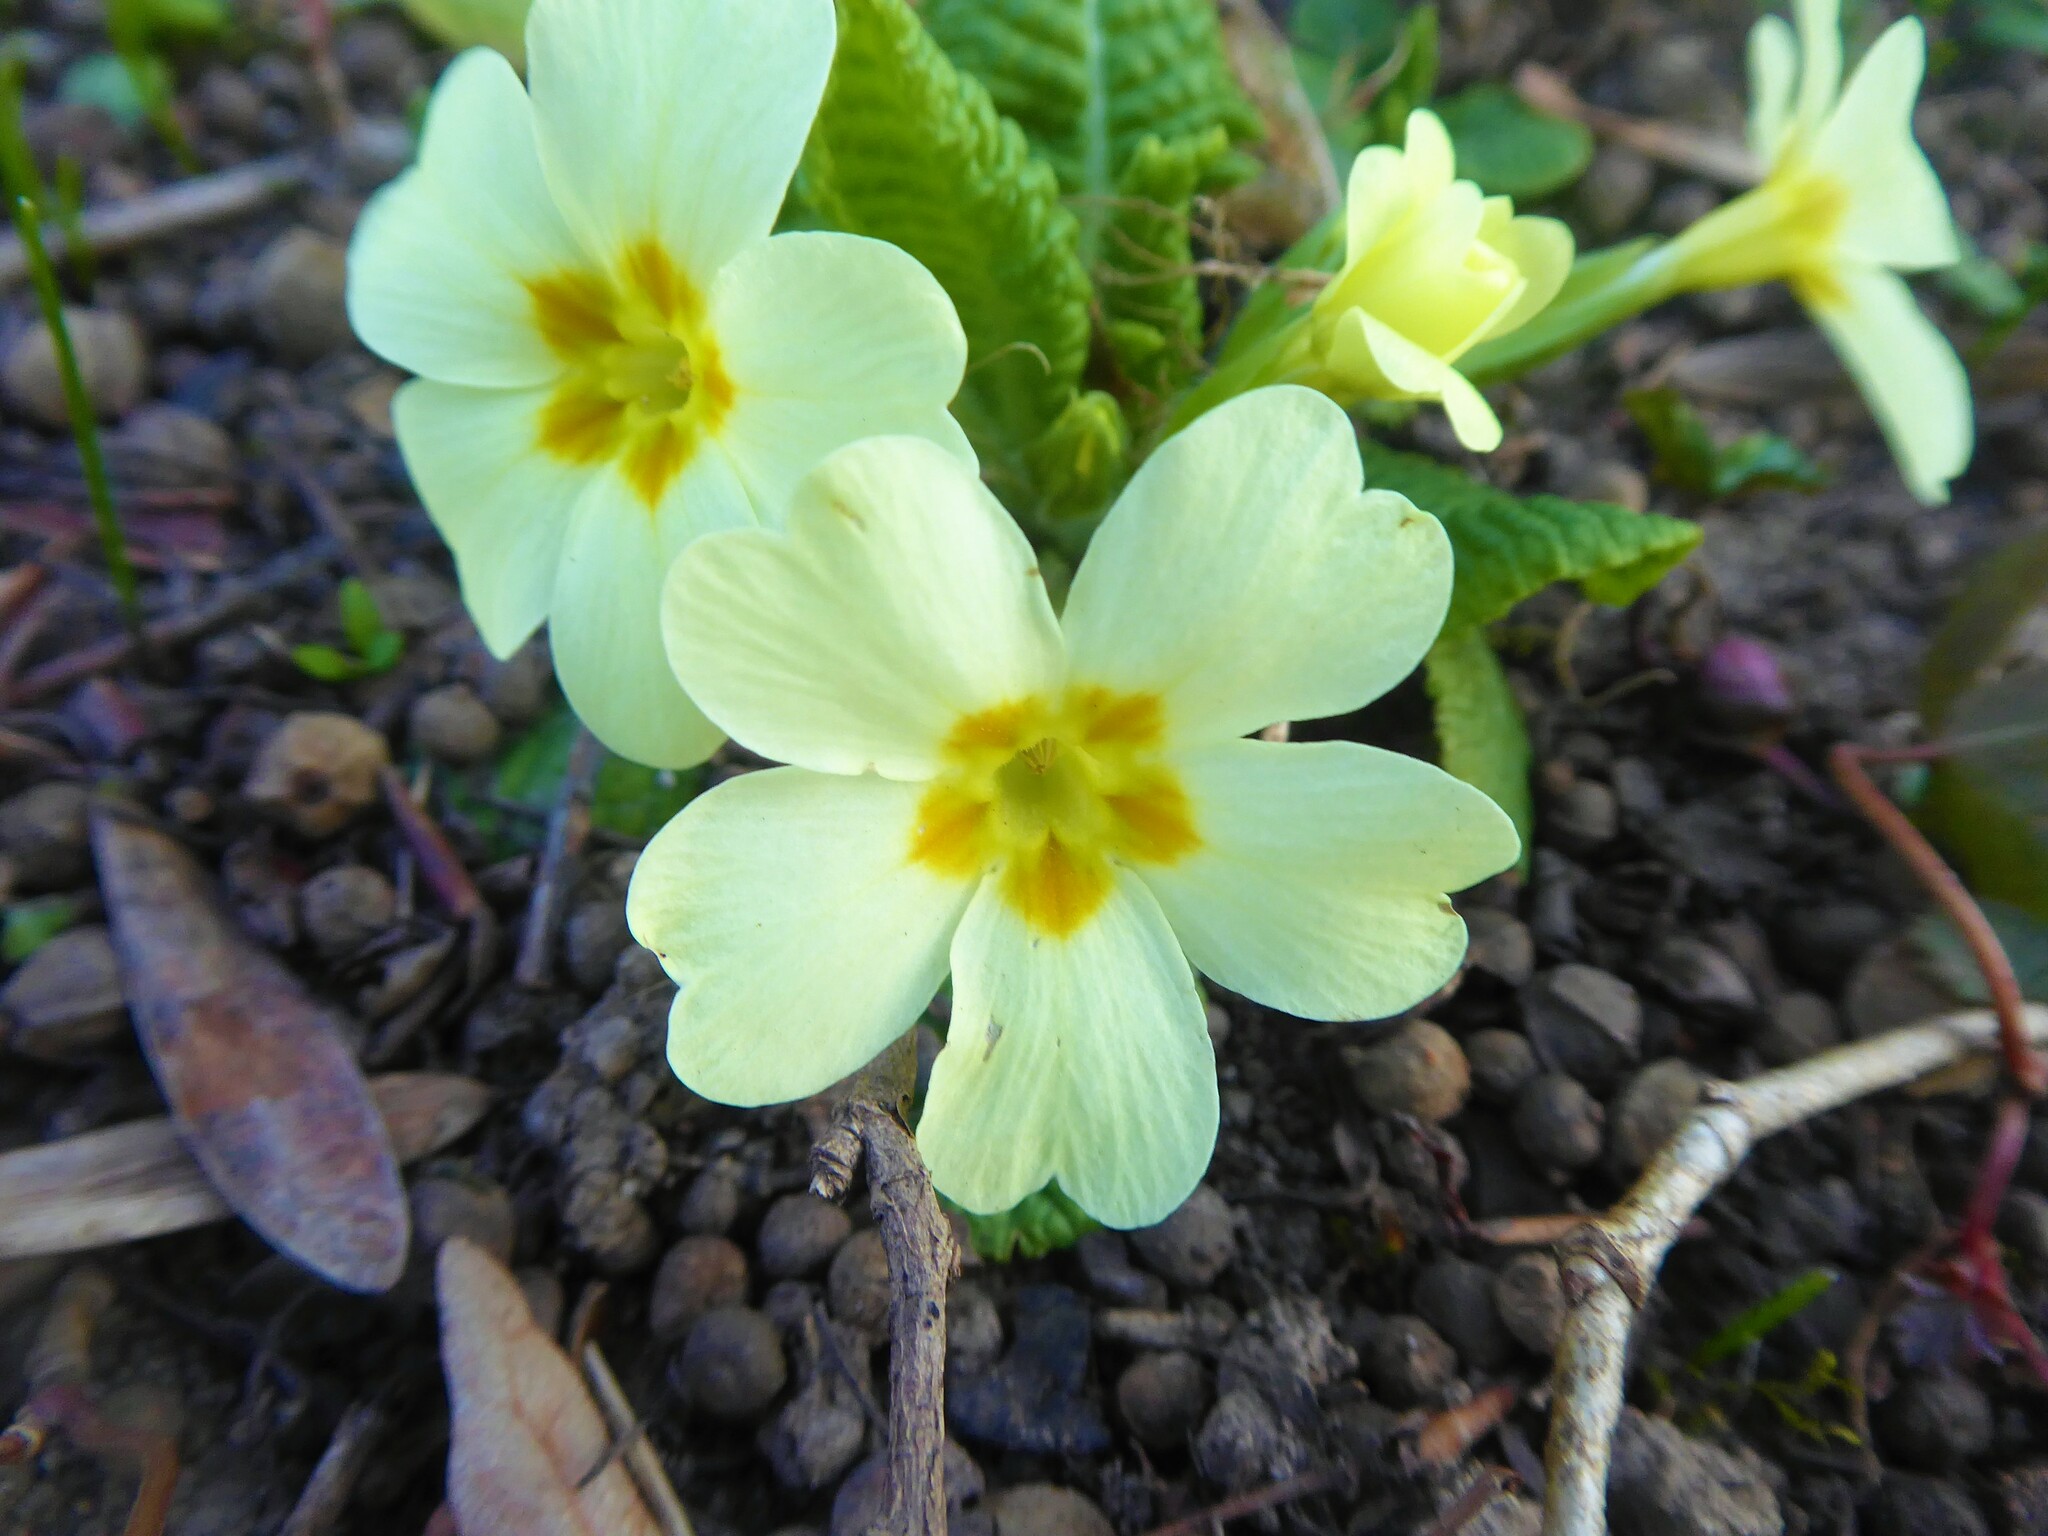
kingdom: Plantae
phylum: Tracheophyta
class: Magnoliopsida
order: Ericales
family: Primulaceae
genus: Primula
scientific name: Primula vulgaris
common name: Primrose
